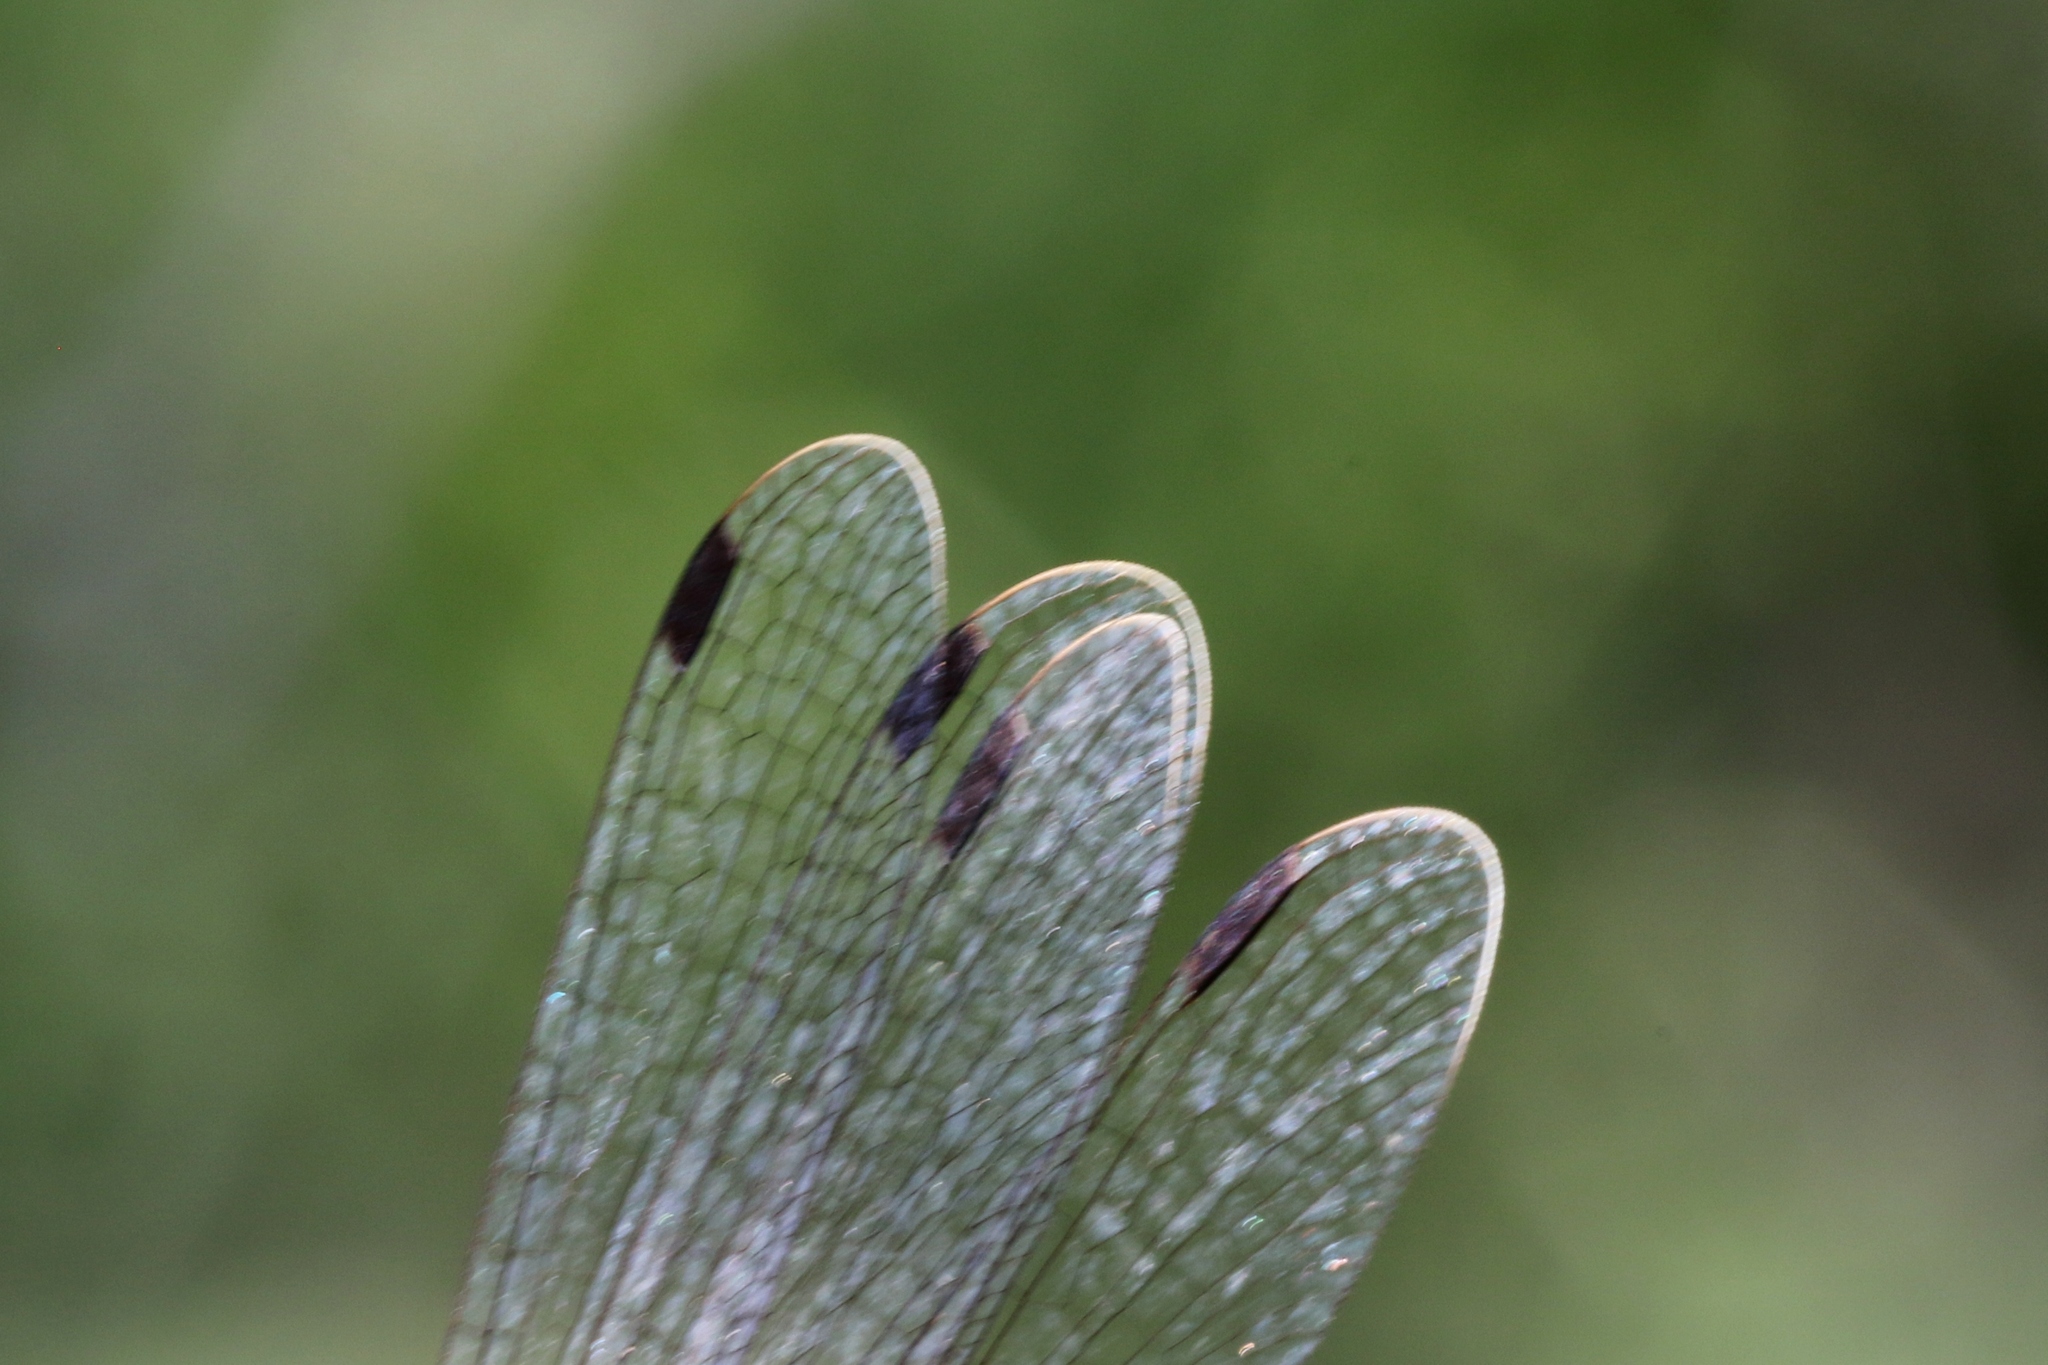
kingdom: Animalia
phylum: Arthropoda
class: Insecta
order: Odonata
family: Lestidae
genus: Lestes
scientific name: Lestes rectangularis
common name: Slender spreadwing
